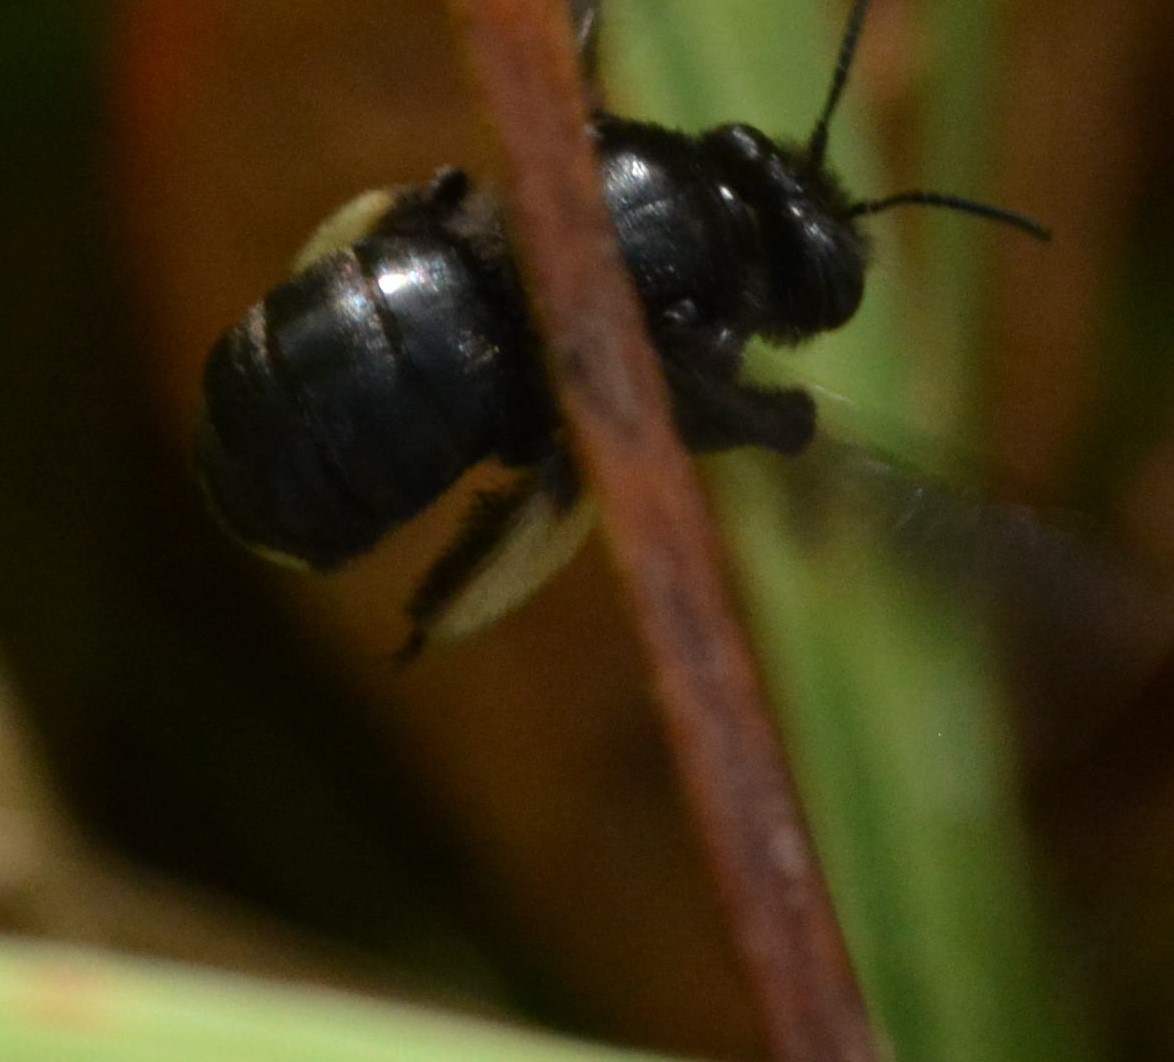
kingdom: Animalia
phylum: Arthropoda
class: Insecta
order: Hymenoptera
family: Apidae
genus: Melissodes
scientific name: Melissodes bimaculatus
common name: Two-spotted long-horned bee
